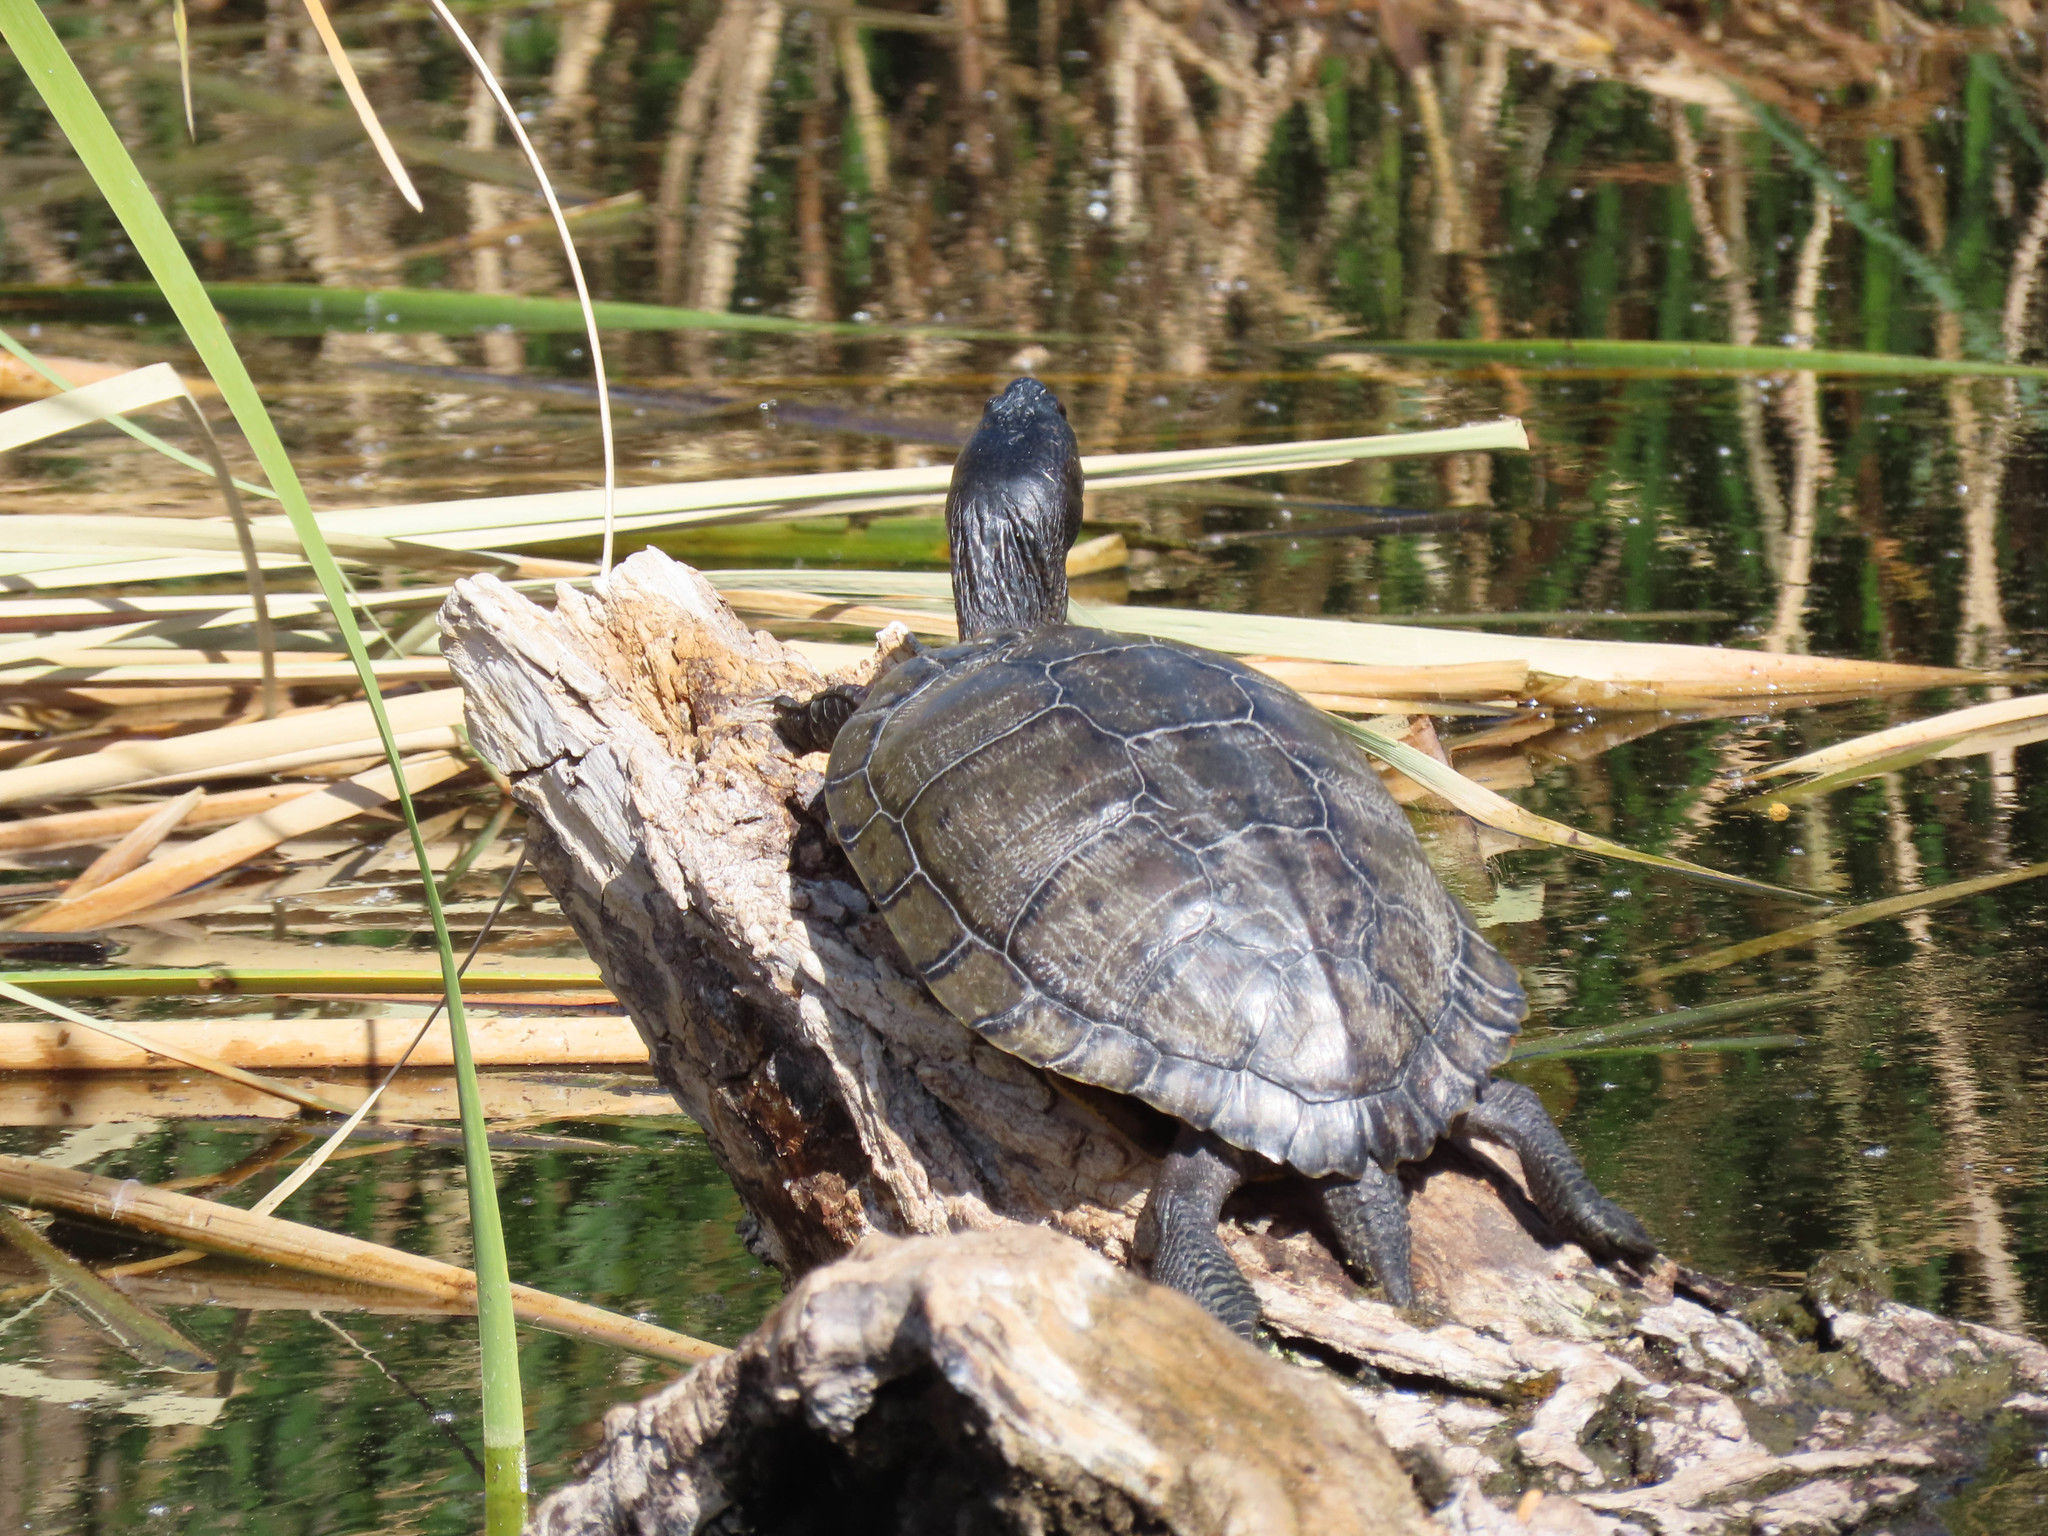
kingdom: Animalia
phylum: Chordata
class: Testudines
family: Emydidae
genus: Trachemys
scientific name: Trachemys scripta
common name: Slider
